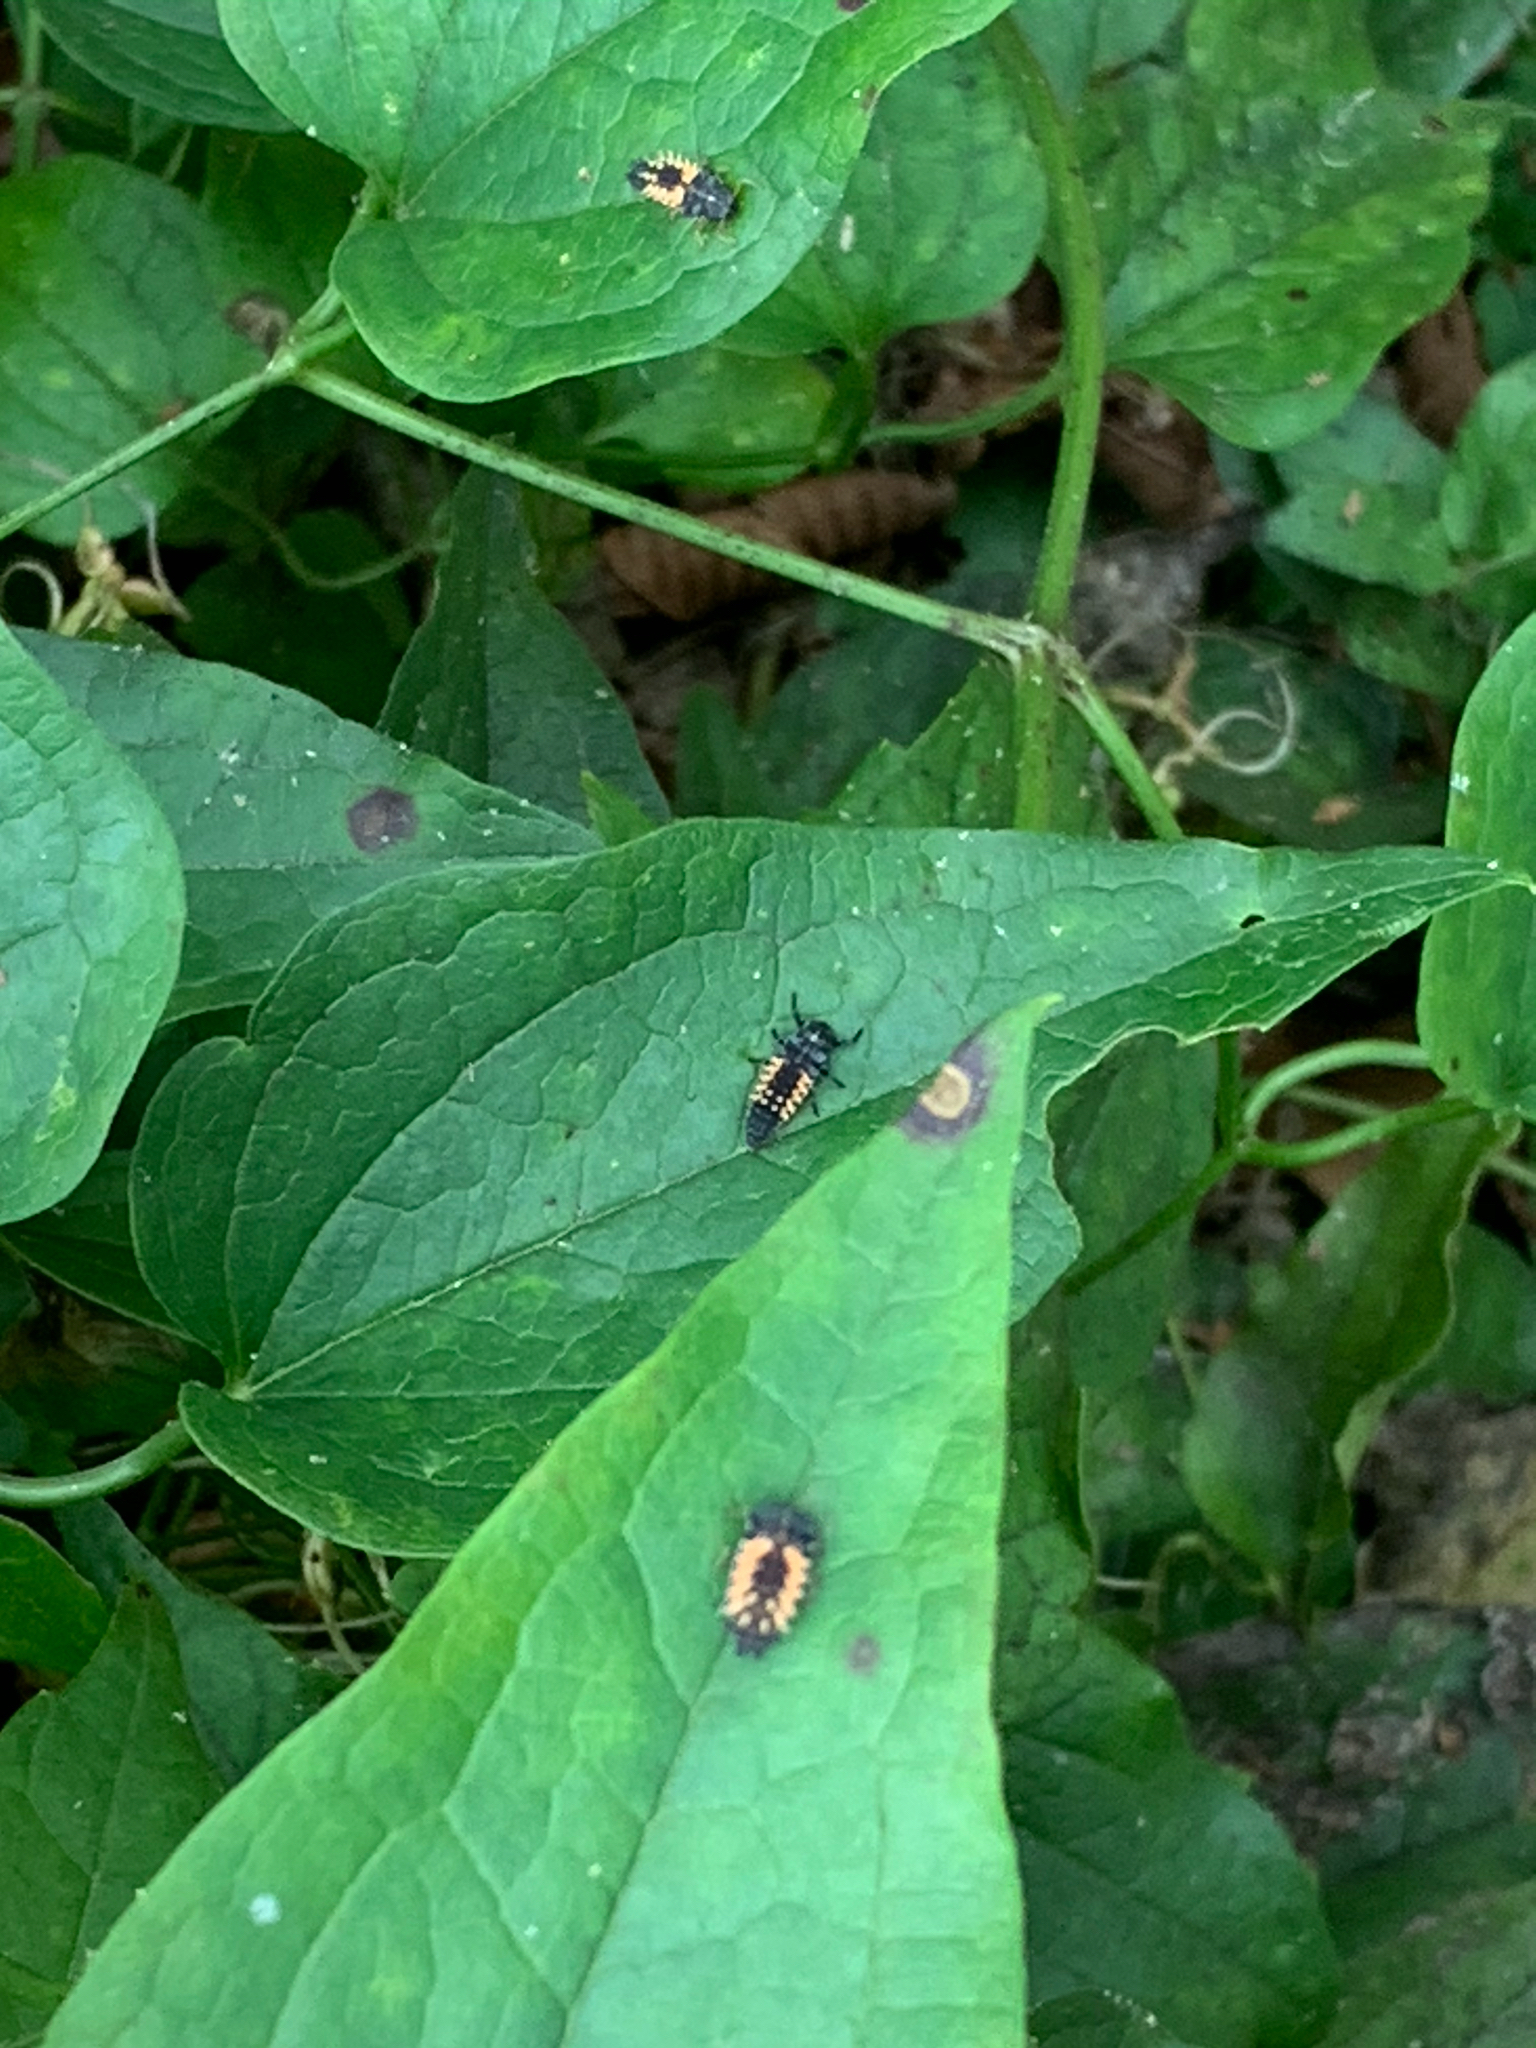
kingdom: Animalia
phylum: Arthropoda
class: Insecta
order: Coleoptera
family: Coccinellidae
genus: Harmonia
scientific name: Harmonia axyridis
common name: Harlequin ladybird
